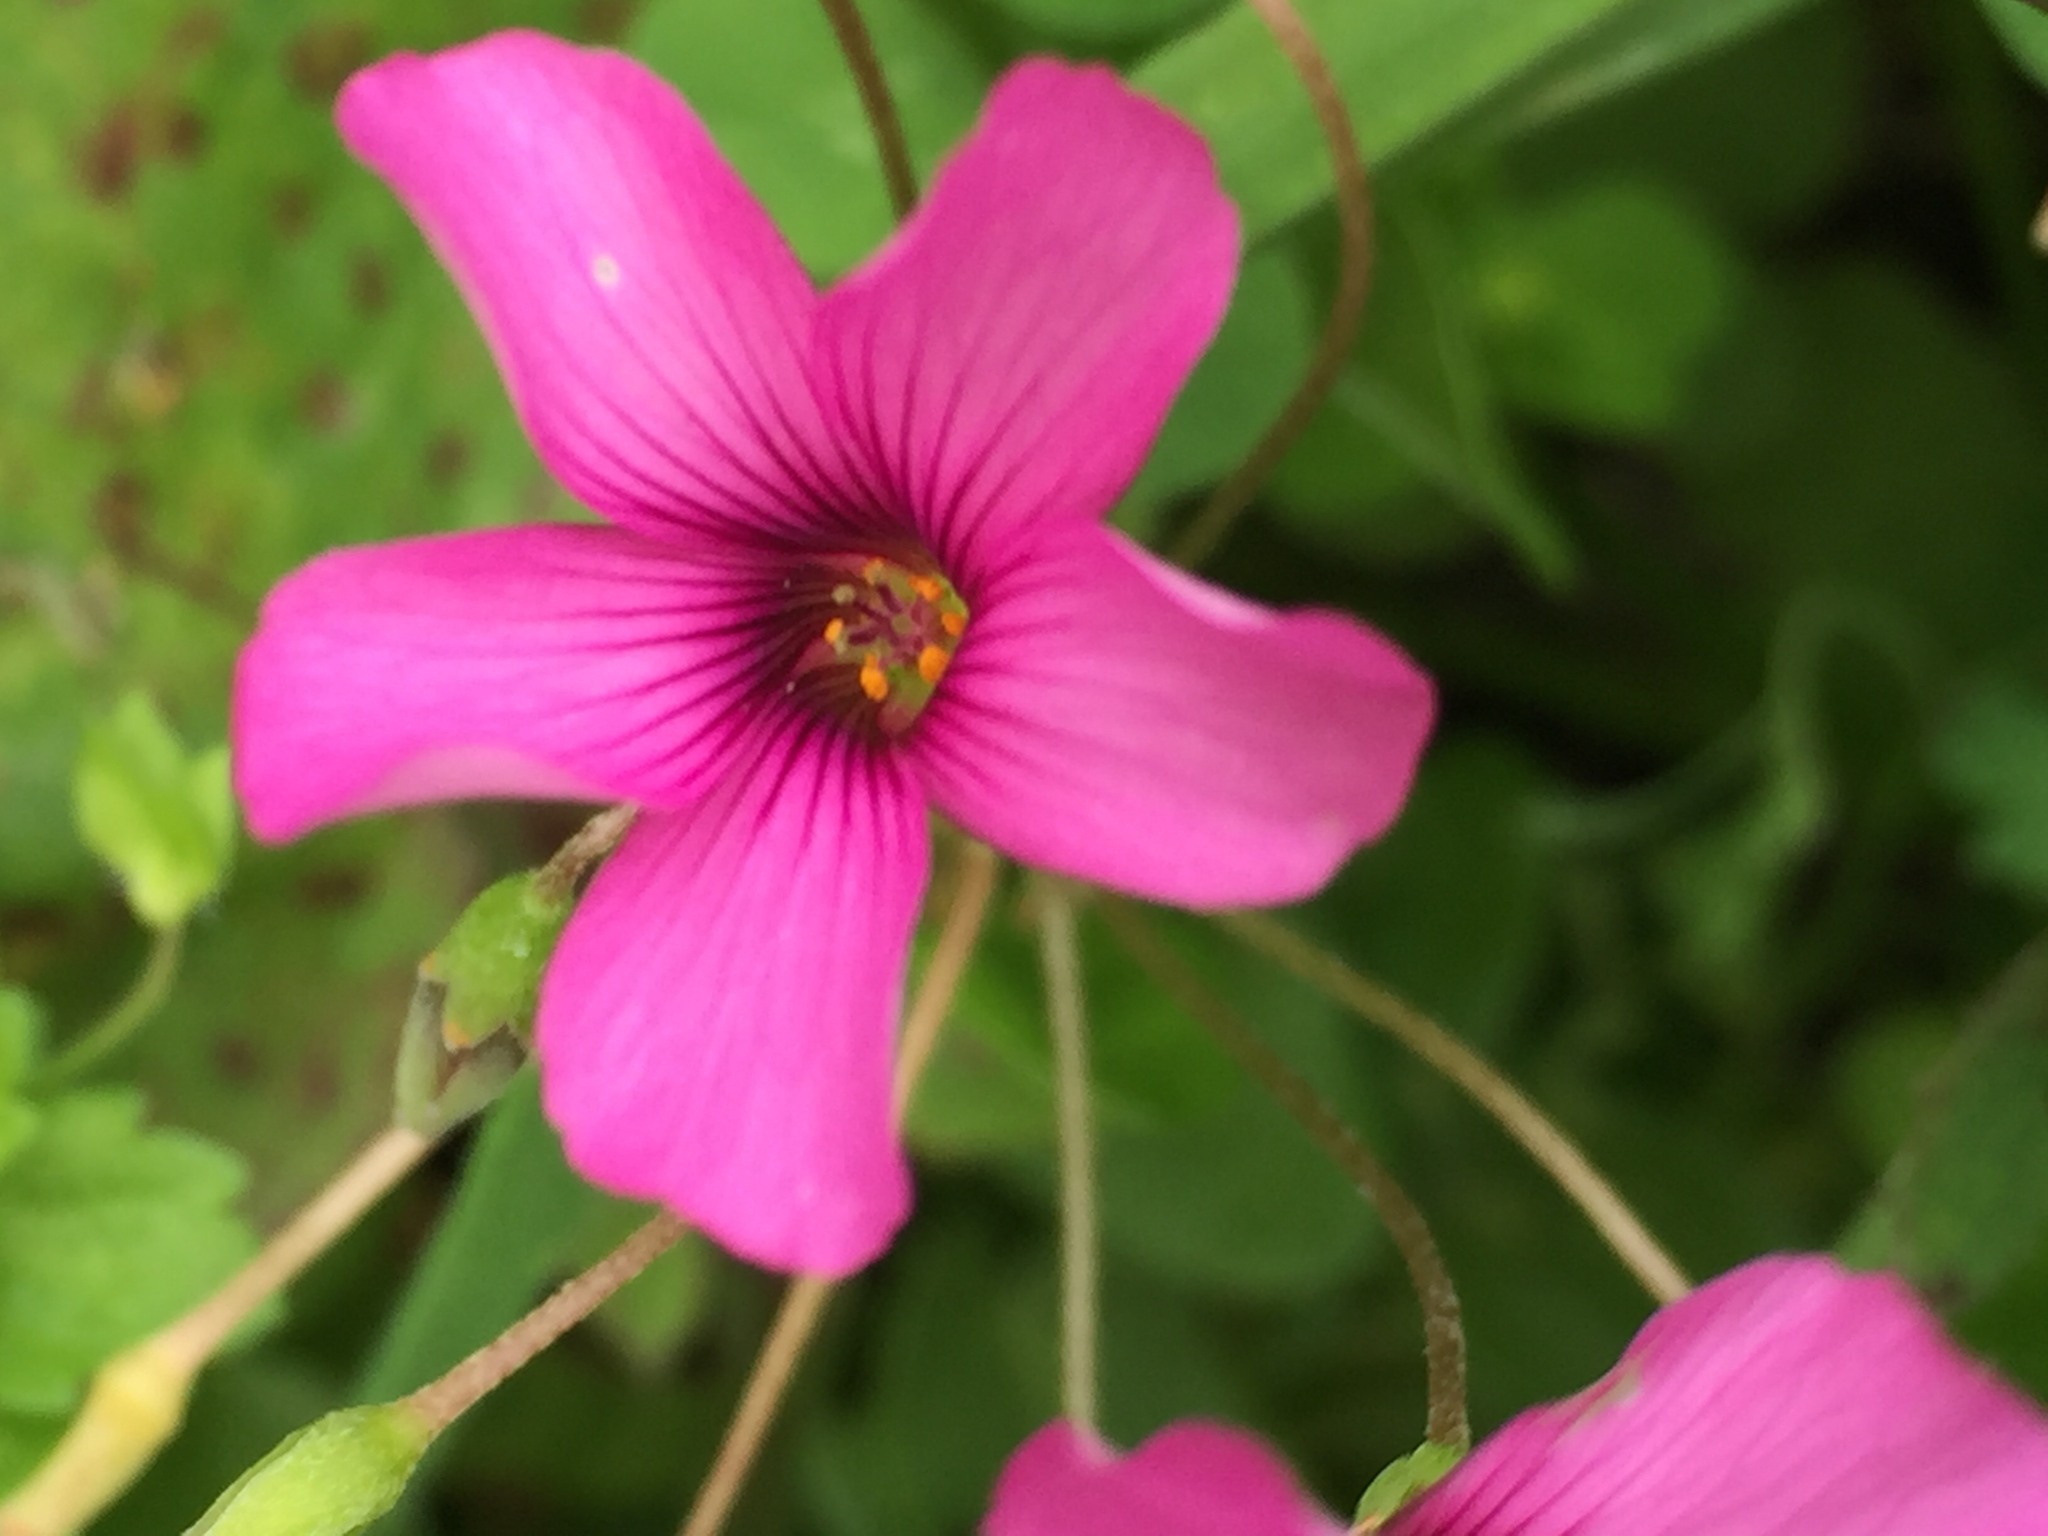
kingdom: Plantae
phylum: Tracheophyta
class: Magnoliopsida
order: Oxalidales
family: Oxalidaceae
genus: Oxalis
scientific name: Oxalis articulata
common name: Pink-sorrel
